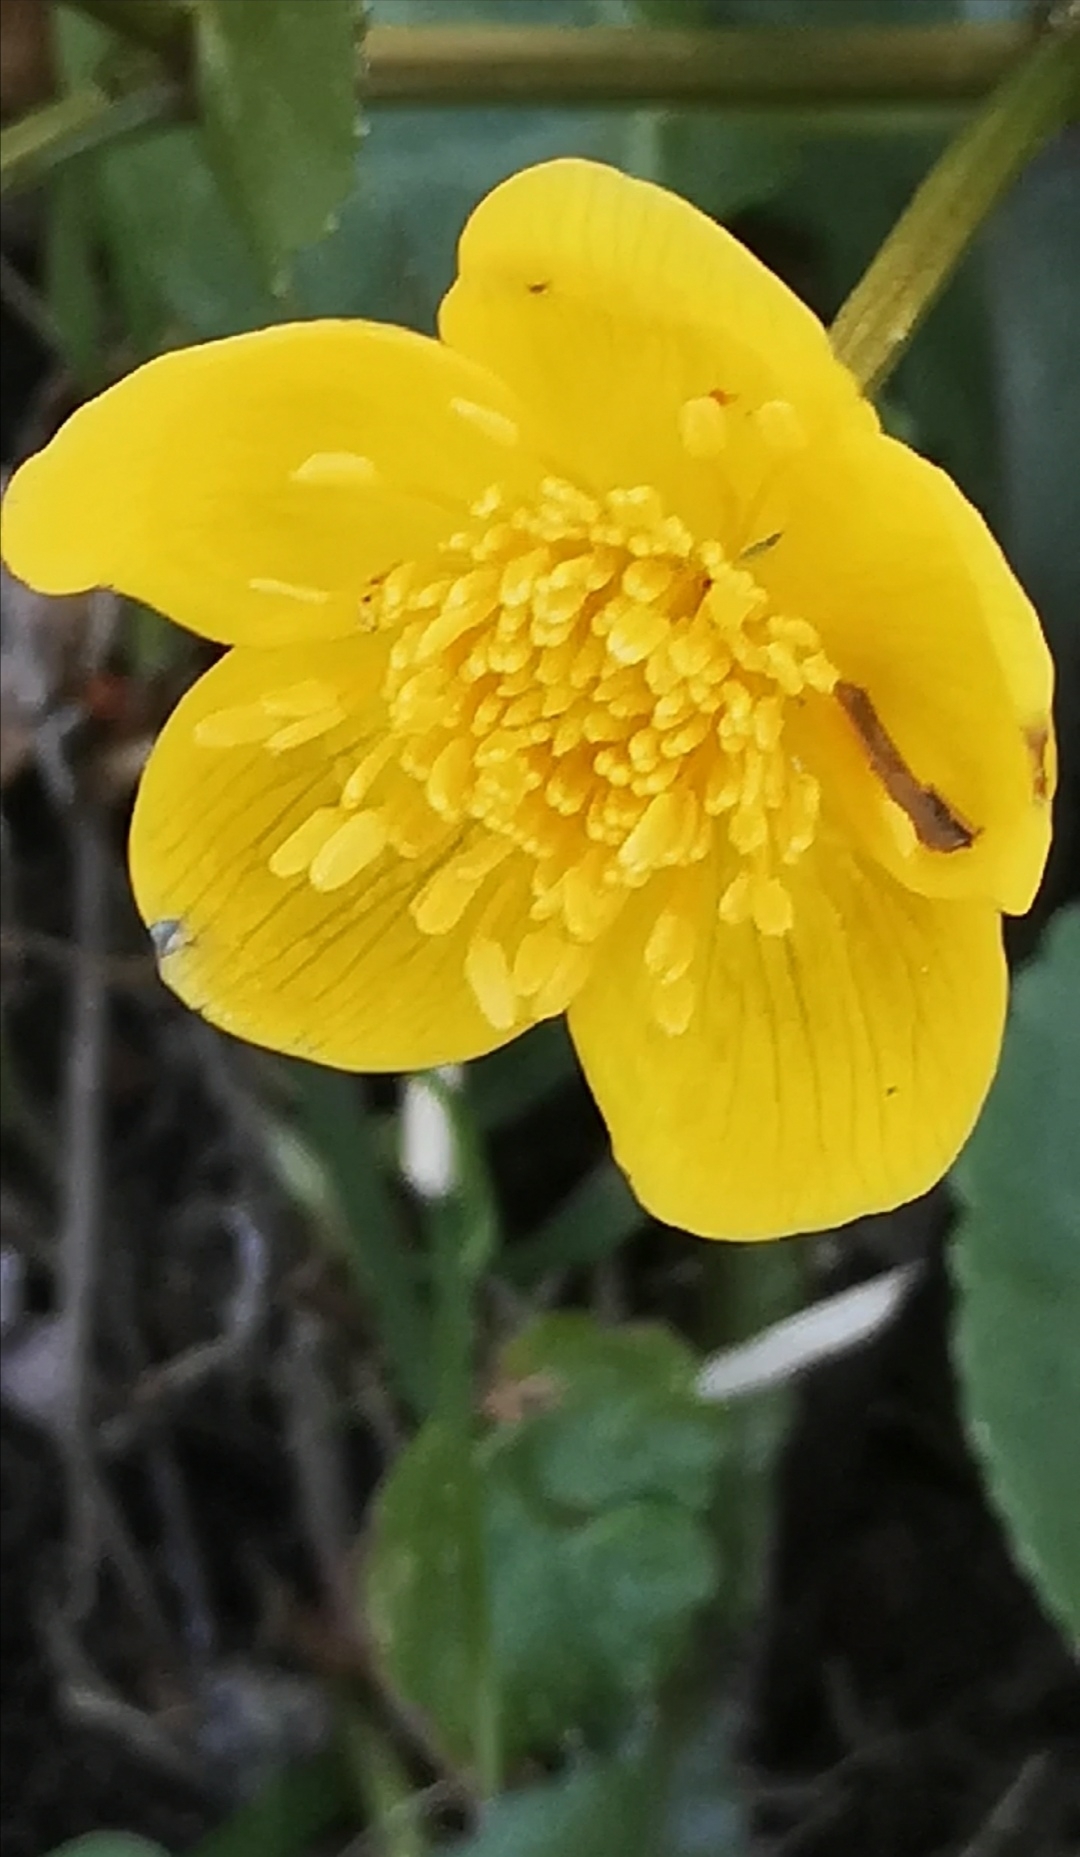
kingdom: Plantae
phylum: Tracheophyta
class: Magnoliopsida
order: Ranunculales
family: Ranunculaceae
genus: Caltha
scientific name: Caltha palustris
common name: Marsh marigold
